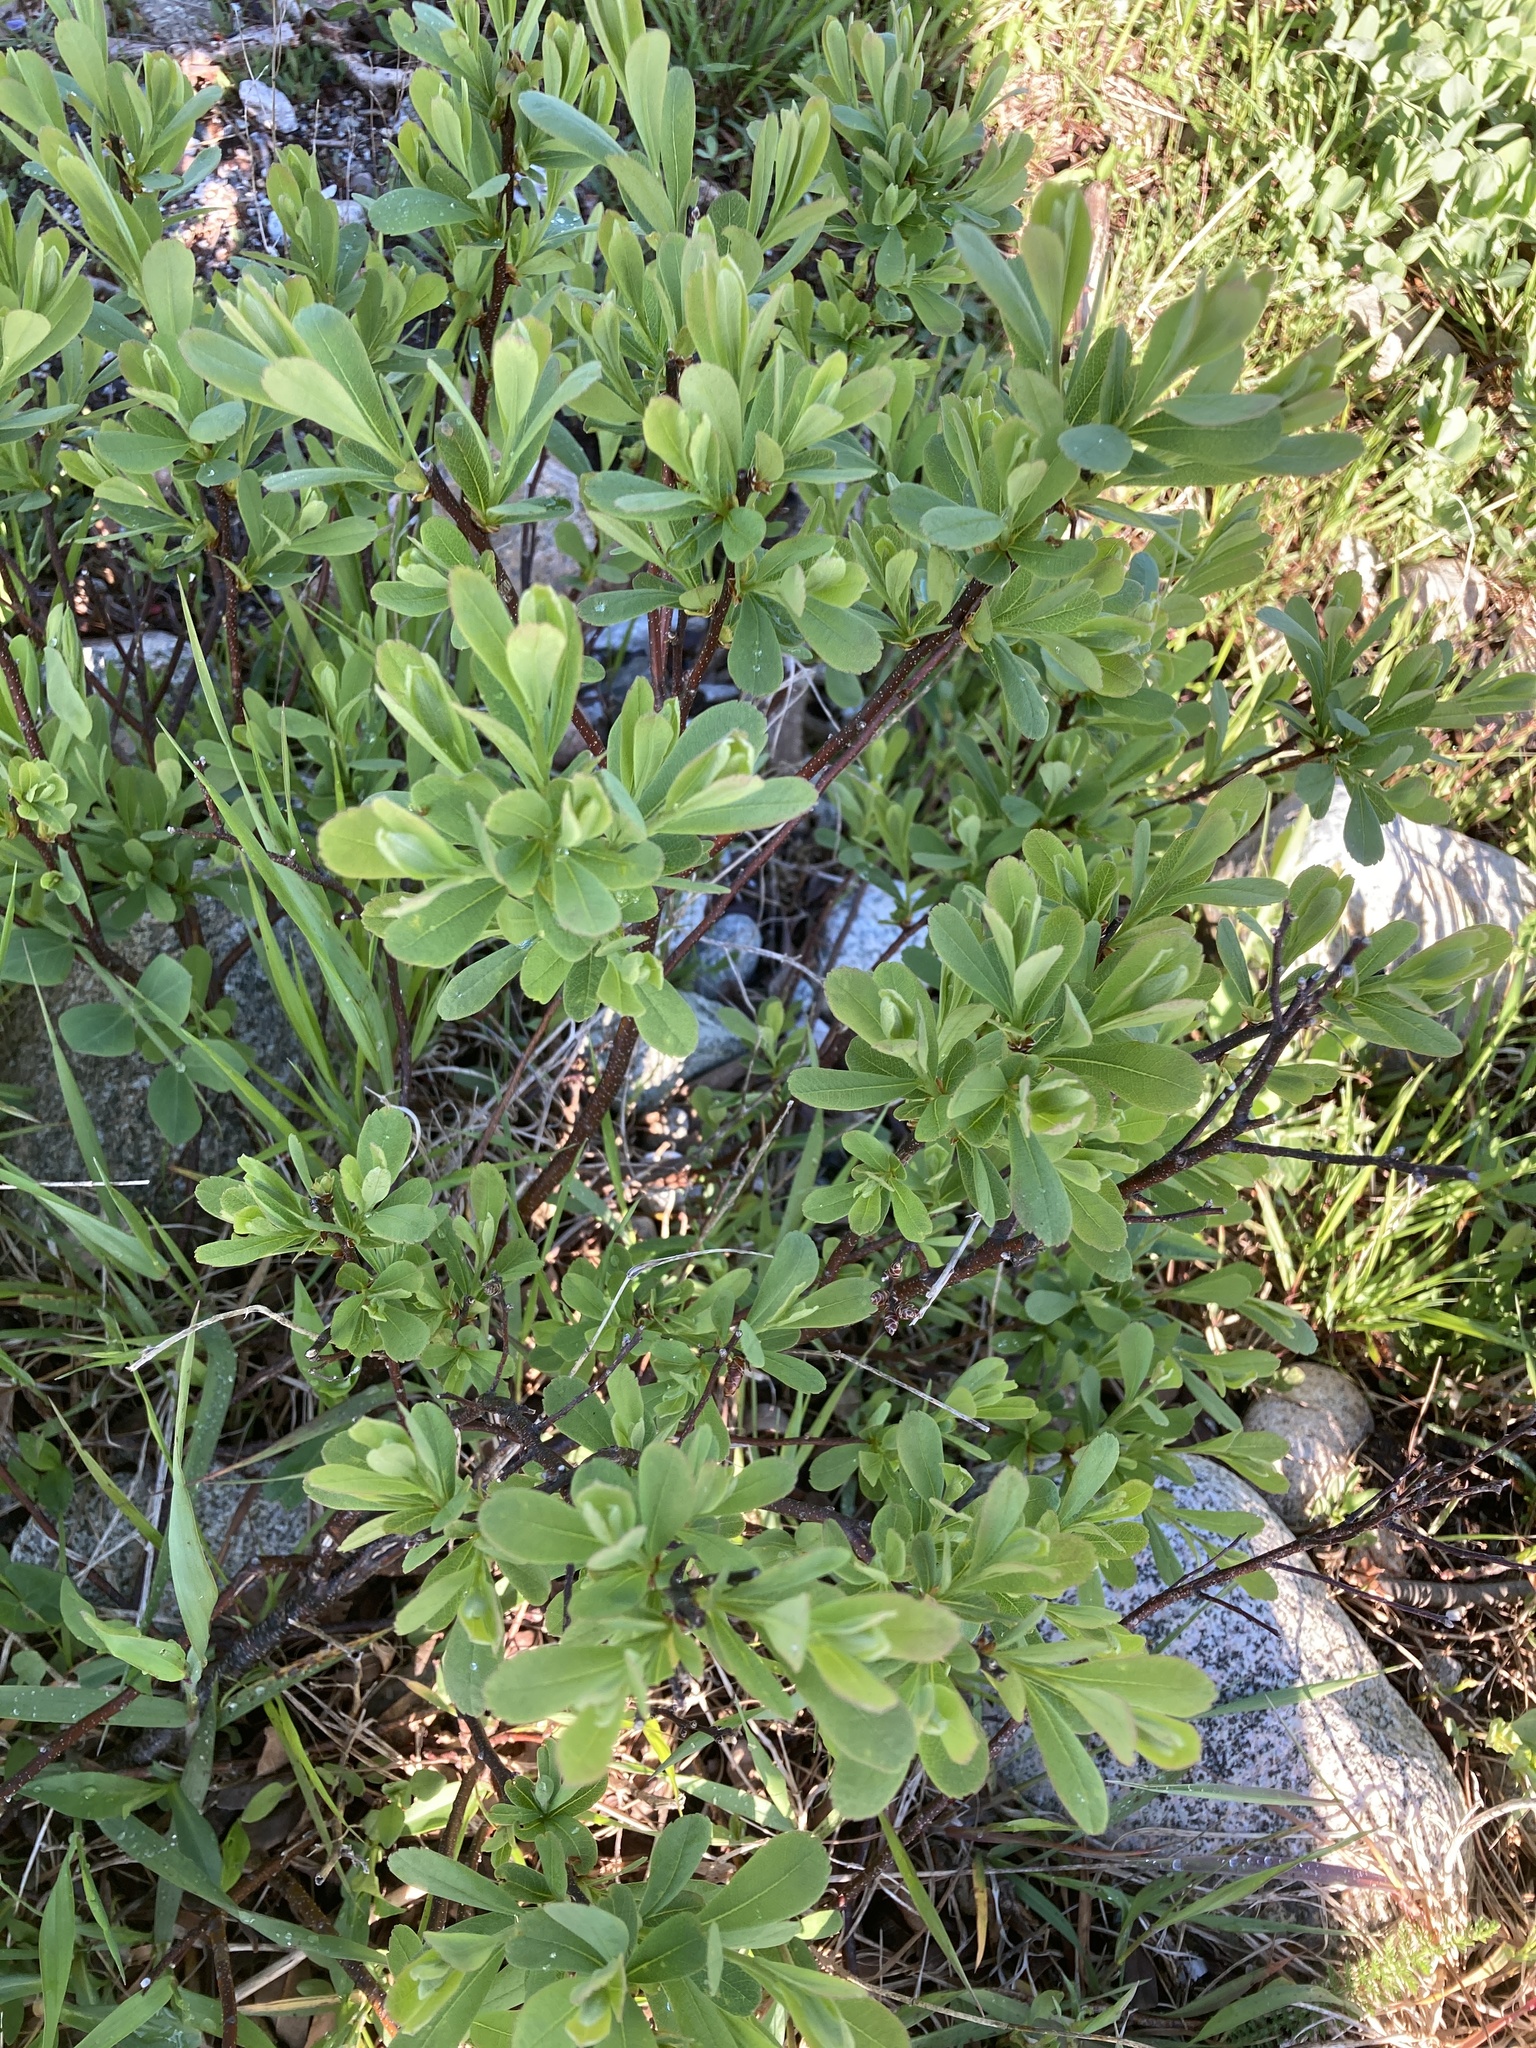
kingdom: Plantae
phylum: Tracheophyta
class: Magnoliopsida
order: Fagales
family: Myricaceae
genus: Myrica
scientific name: Myrica gale
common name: Sweet gale
